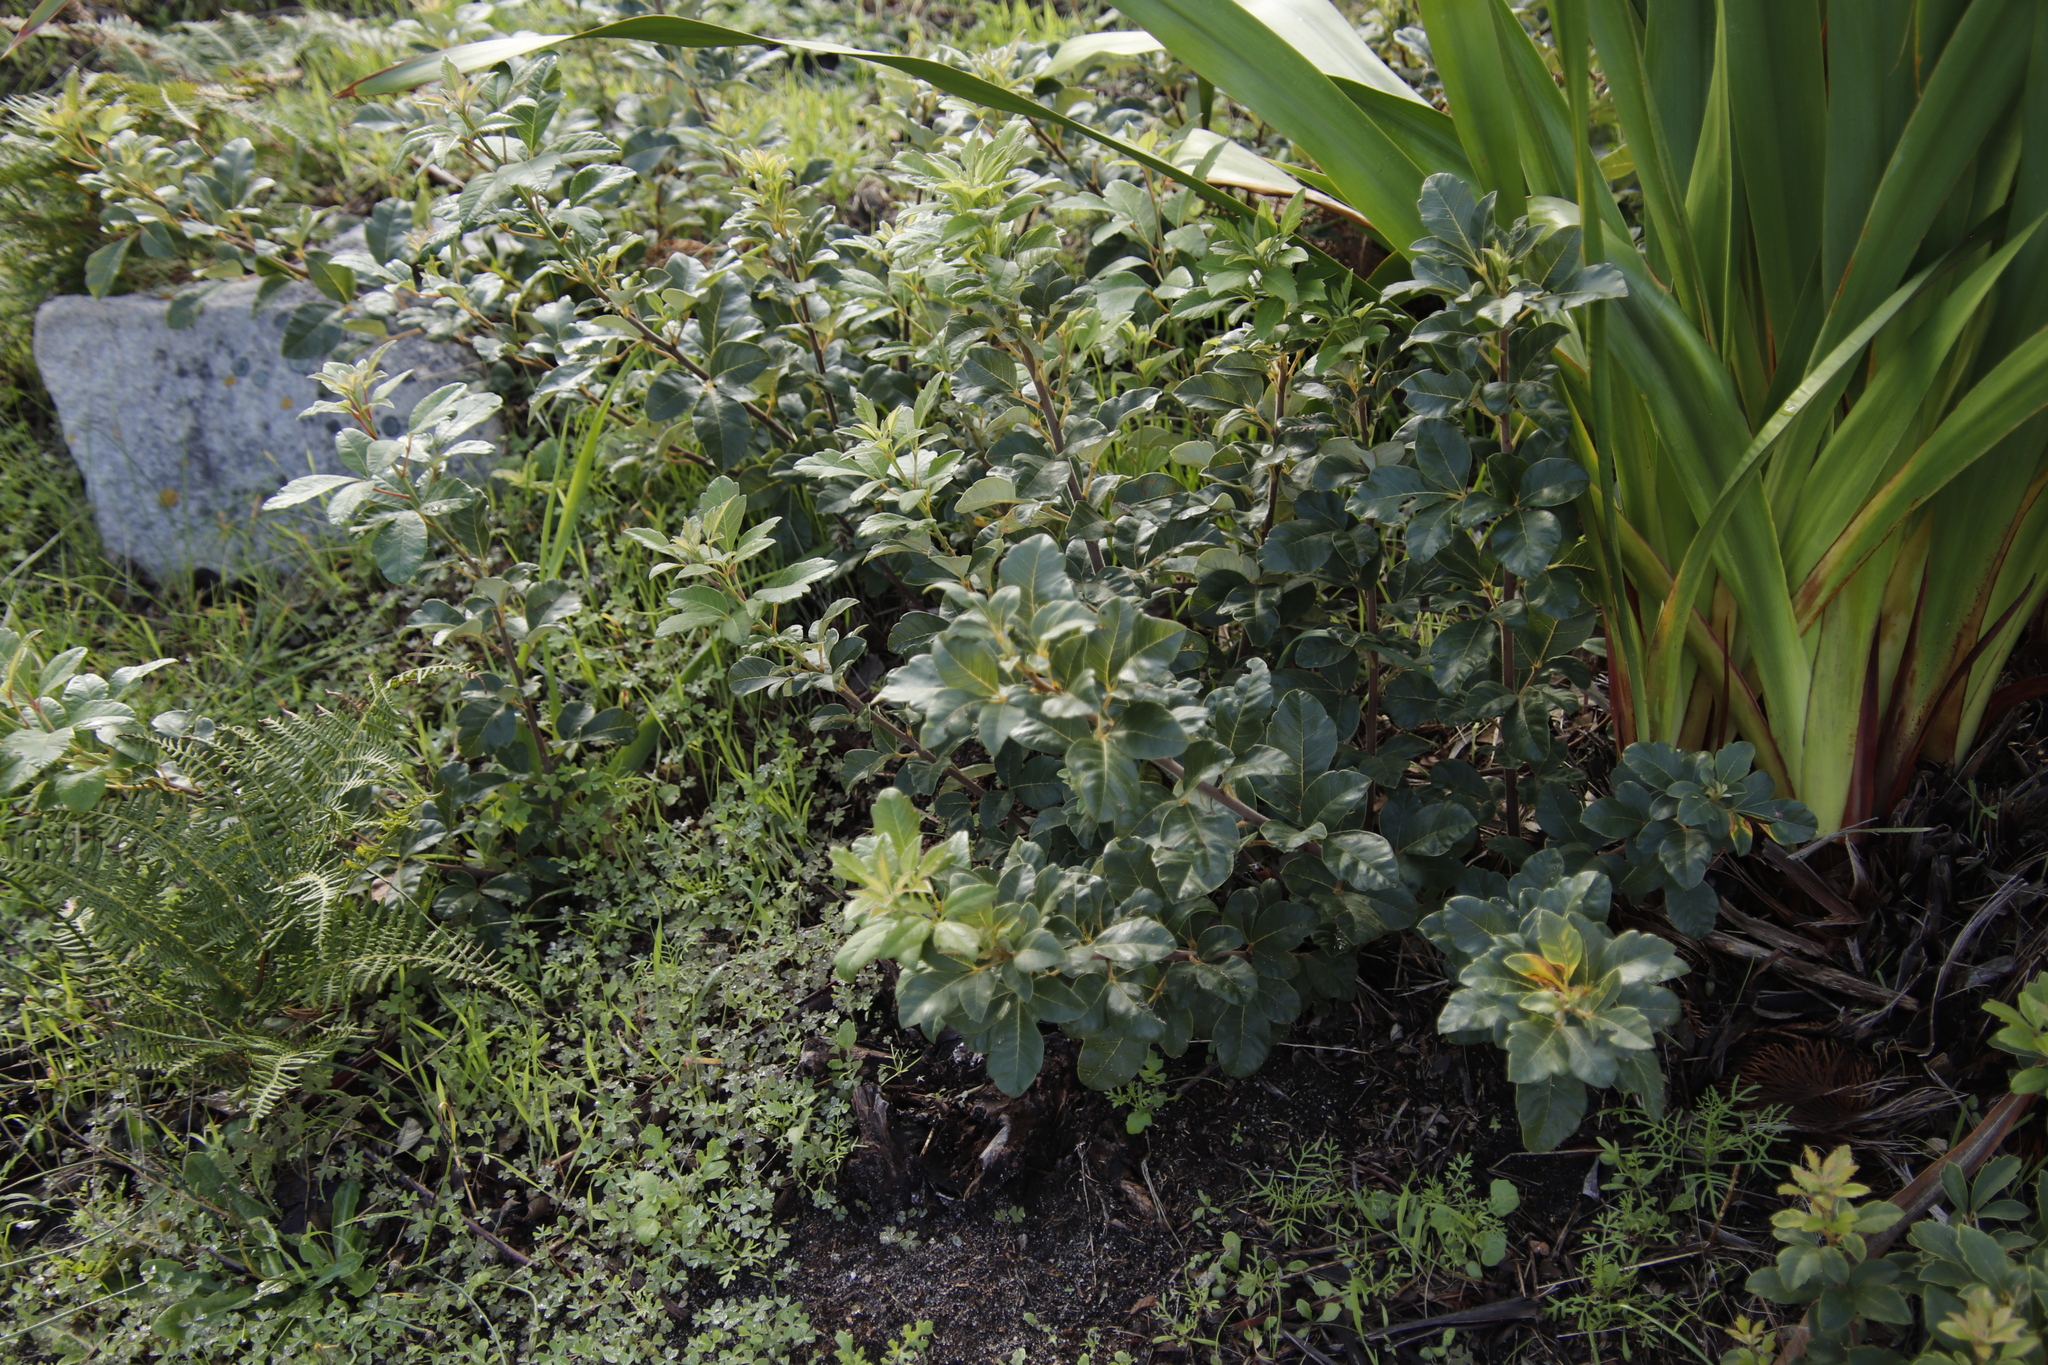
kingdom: Plantae
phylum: Tracheophyta
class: Magnoliopsida
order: Sapindales
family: Anacardiaceae
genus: Searsia
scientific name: Searsia tomentosa
